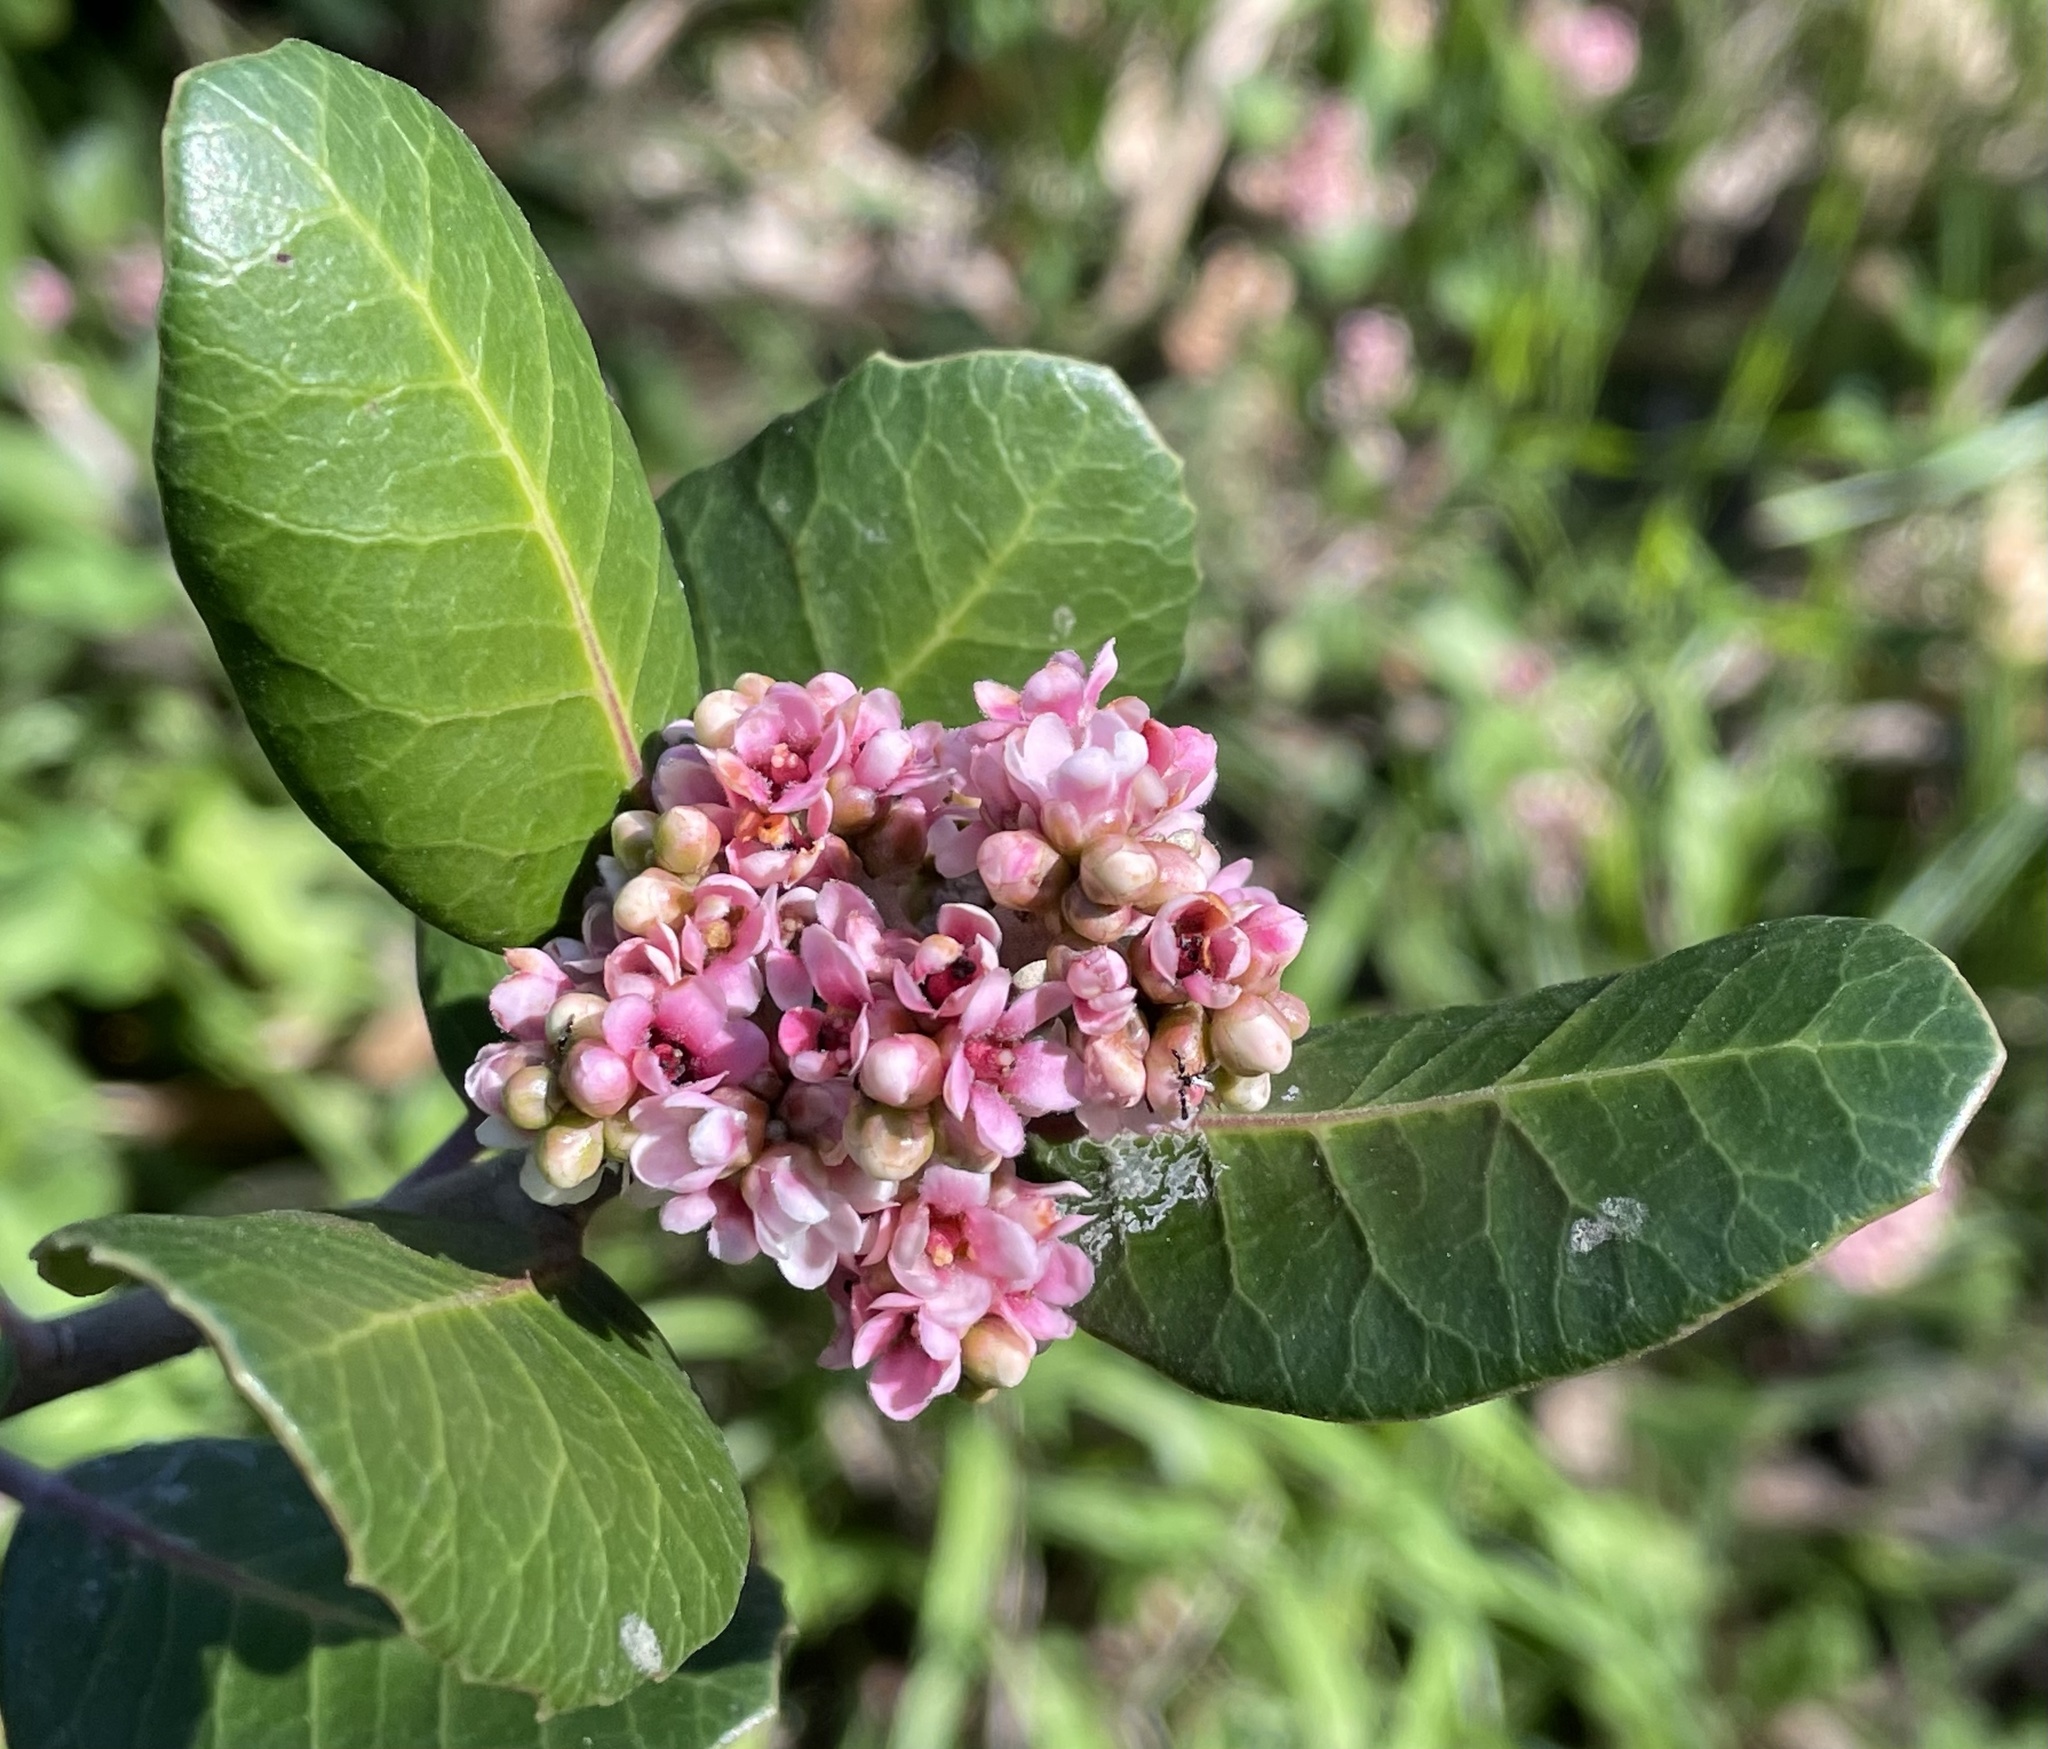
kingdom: Plantae
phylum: Tracheophyta
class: Magnoliopsida
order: Sapindales
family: Anacardiaceae
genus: Rhus
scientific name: Rhus integrifolia
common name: Lemonade sumac
